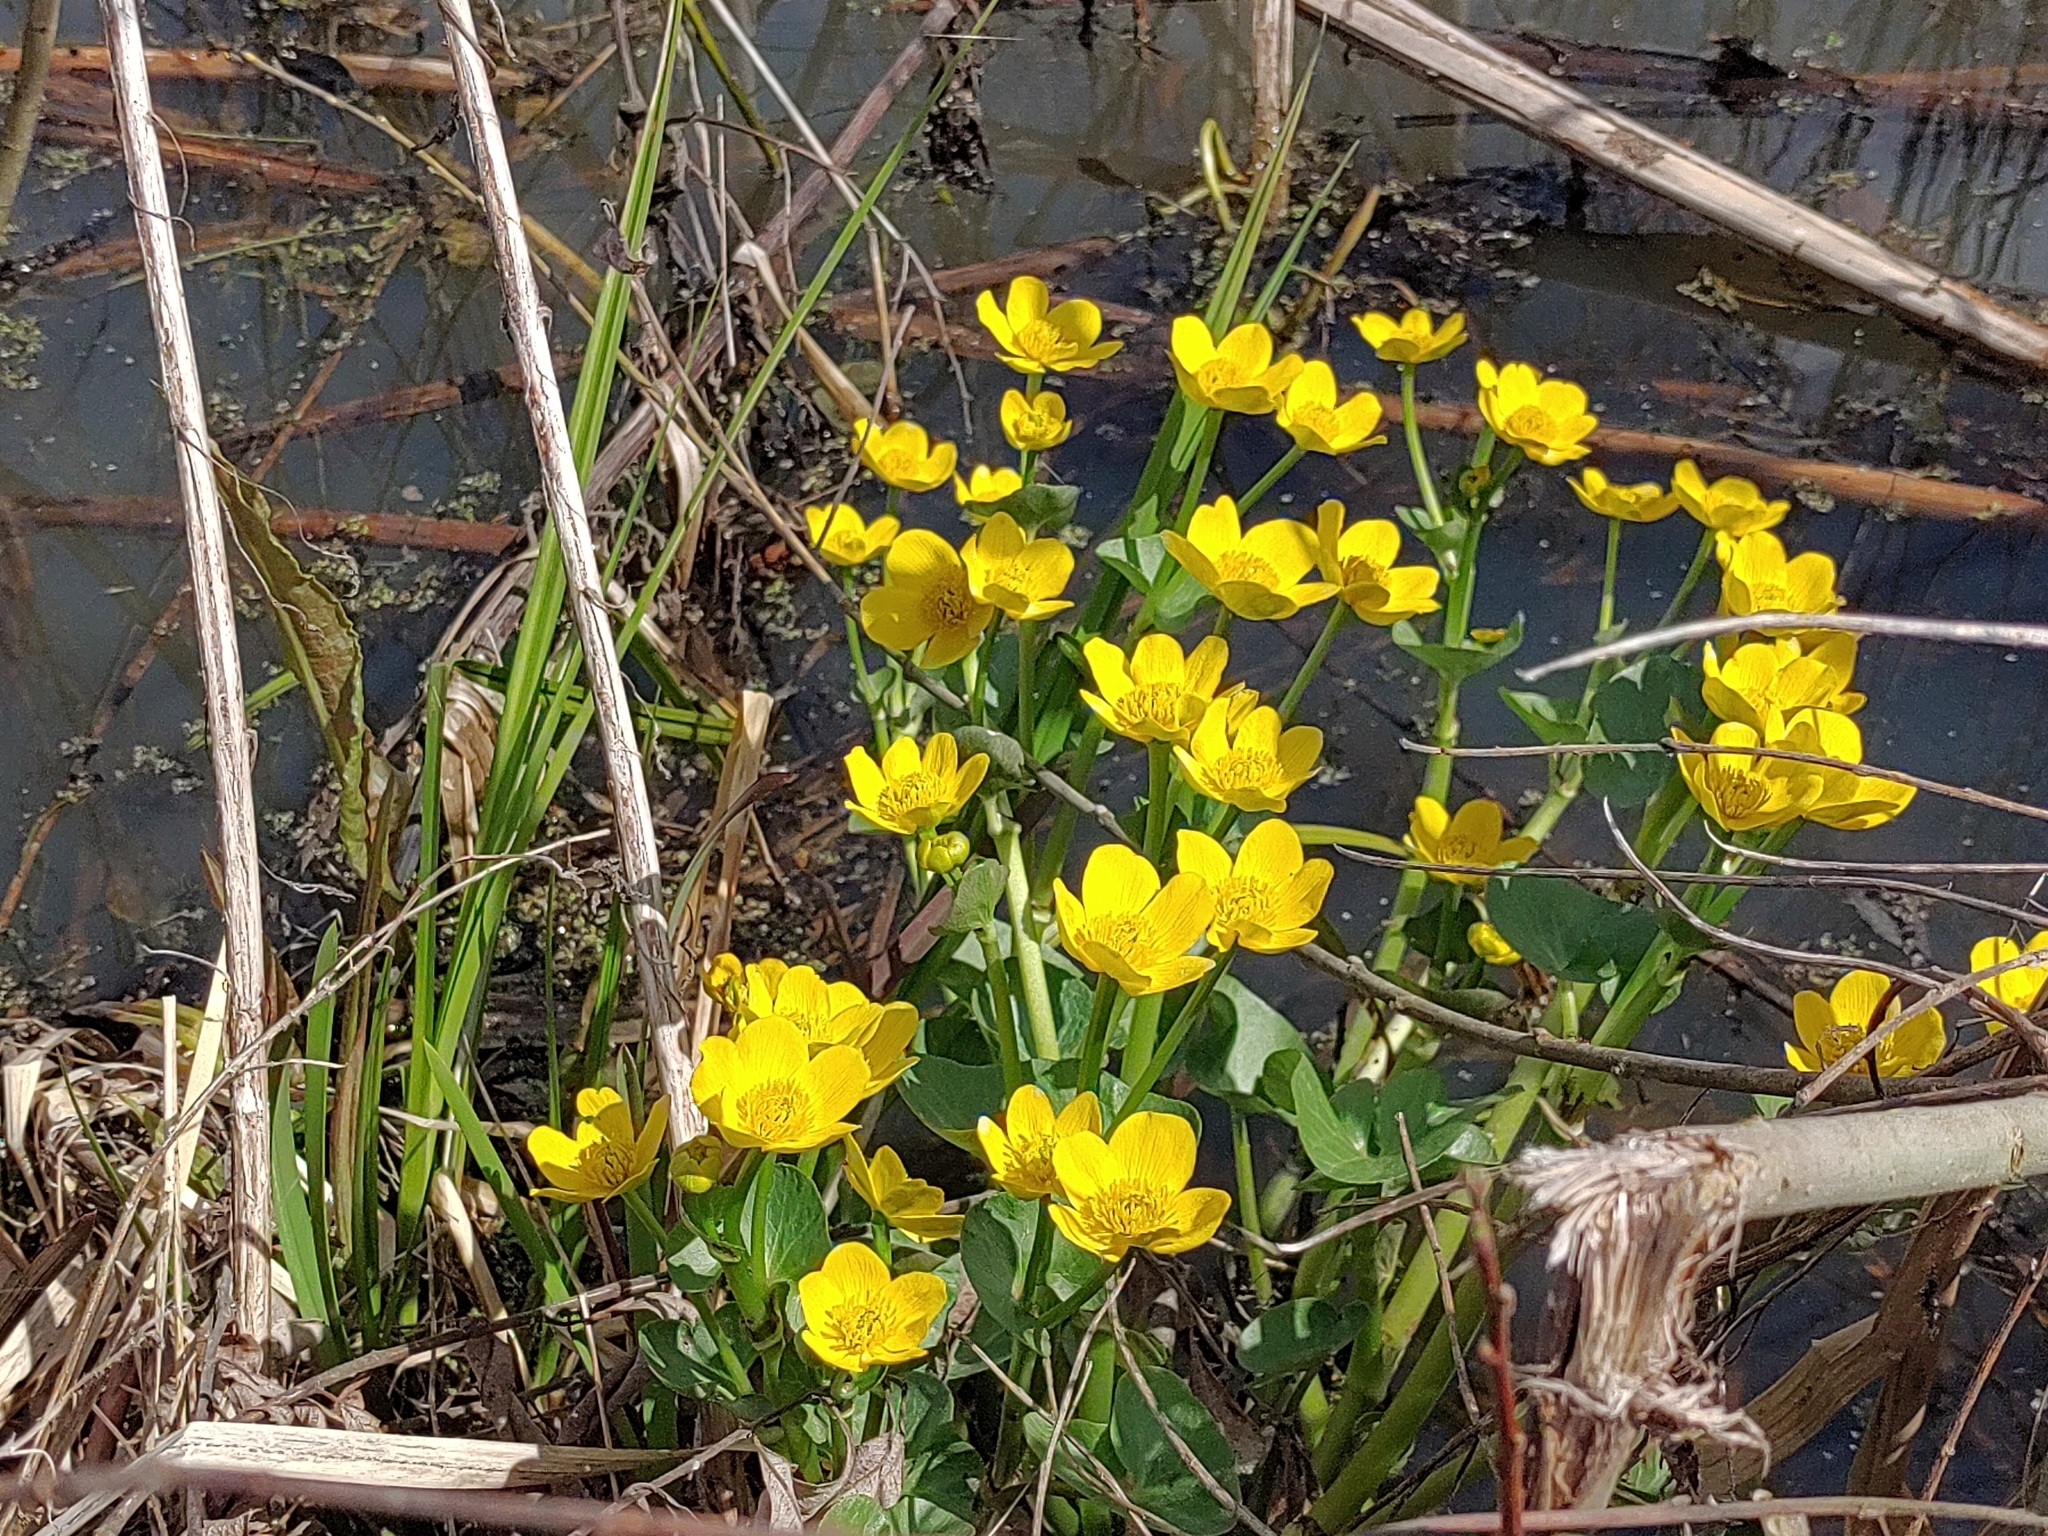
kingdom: Plantae
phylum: Tracheophyta
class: Magnoliopsida
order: Ranunculales
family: Ranunculaceae
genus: Caltha
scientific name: Caltha palustris
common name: Marsh marigold
